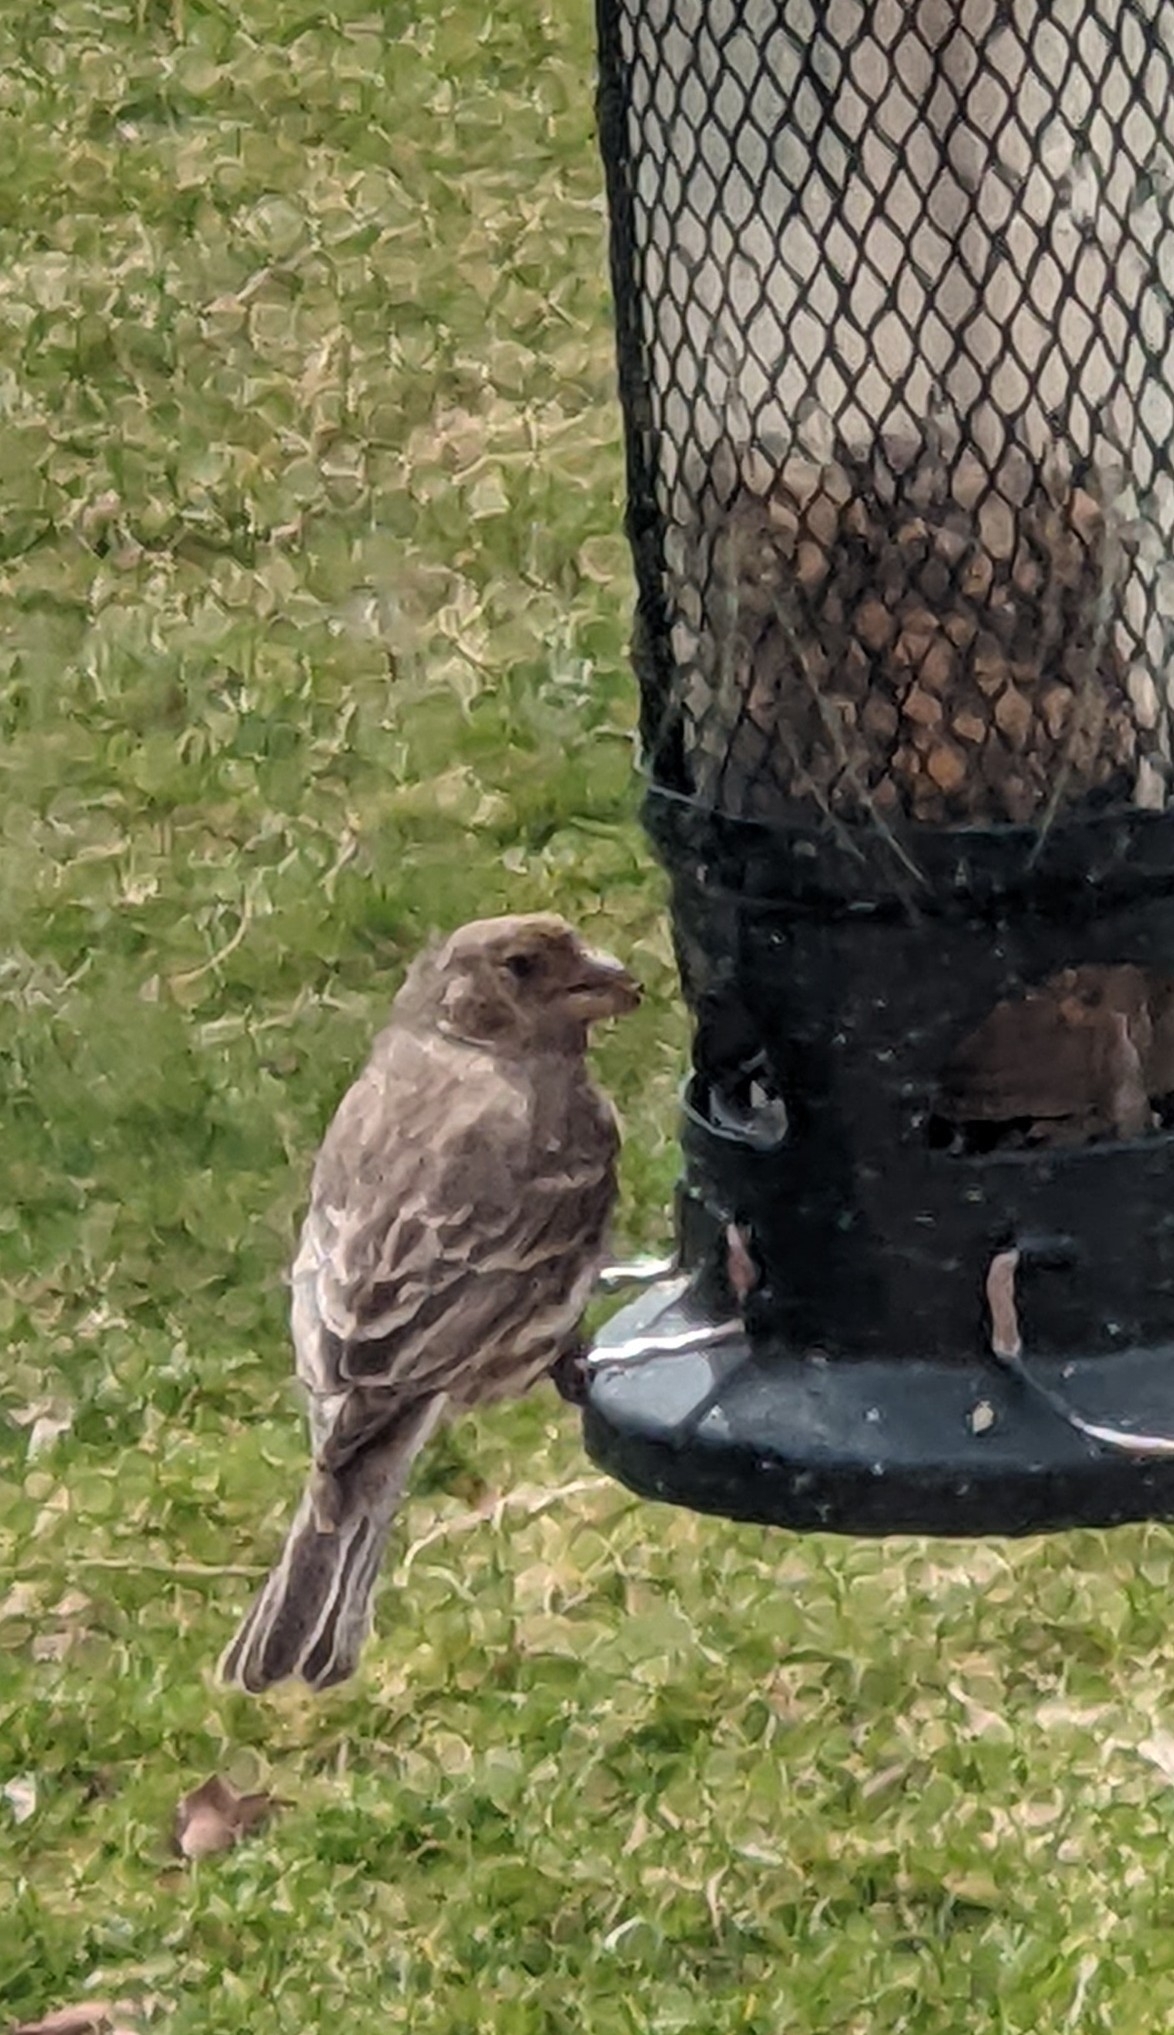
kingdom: Animalia
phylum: Chordata
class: Aves
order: Passeriformes
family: Fringillidae
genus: Haemorhous
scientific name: Haemorhous mexicanus
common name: House finch
